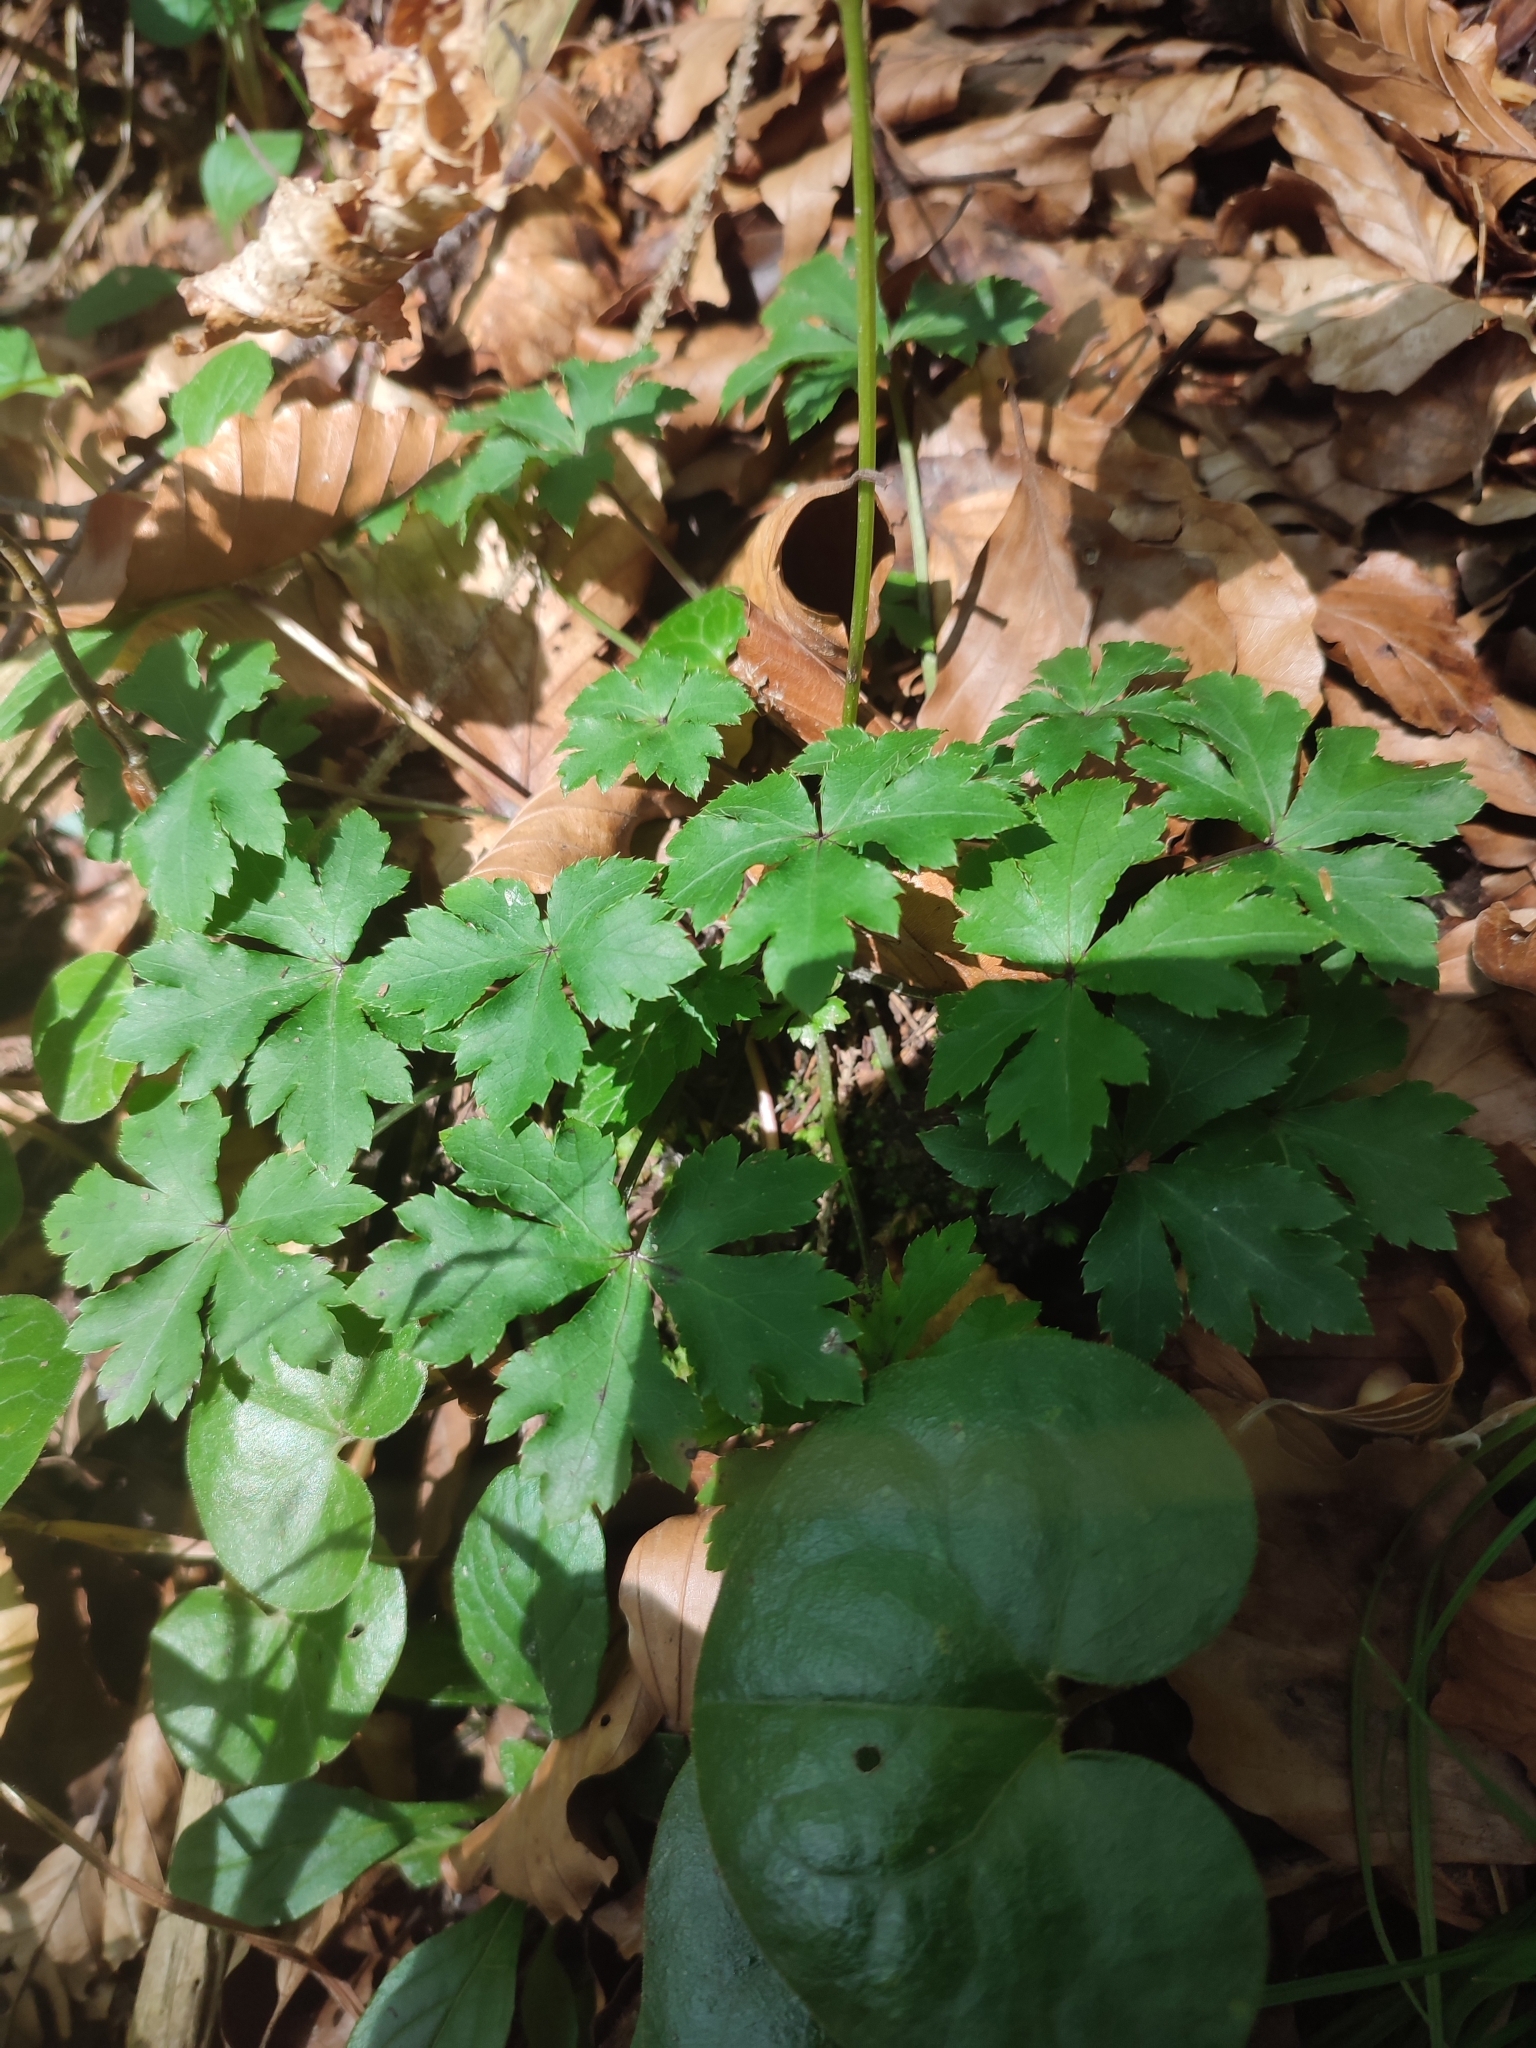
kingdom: Plantae
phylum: Tracheophyta
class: Magnoliopsida
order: Apiales
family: Apiaceae
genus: Sanicula
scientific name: Sanicula europaea
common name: Sanicle
